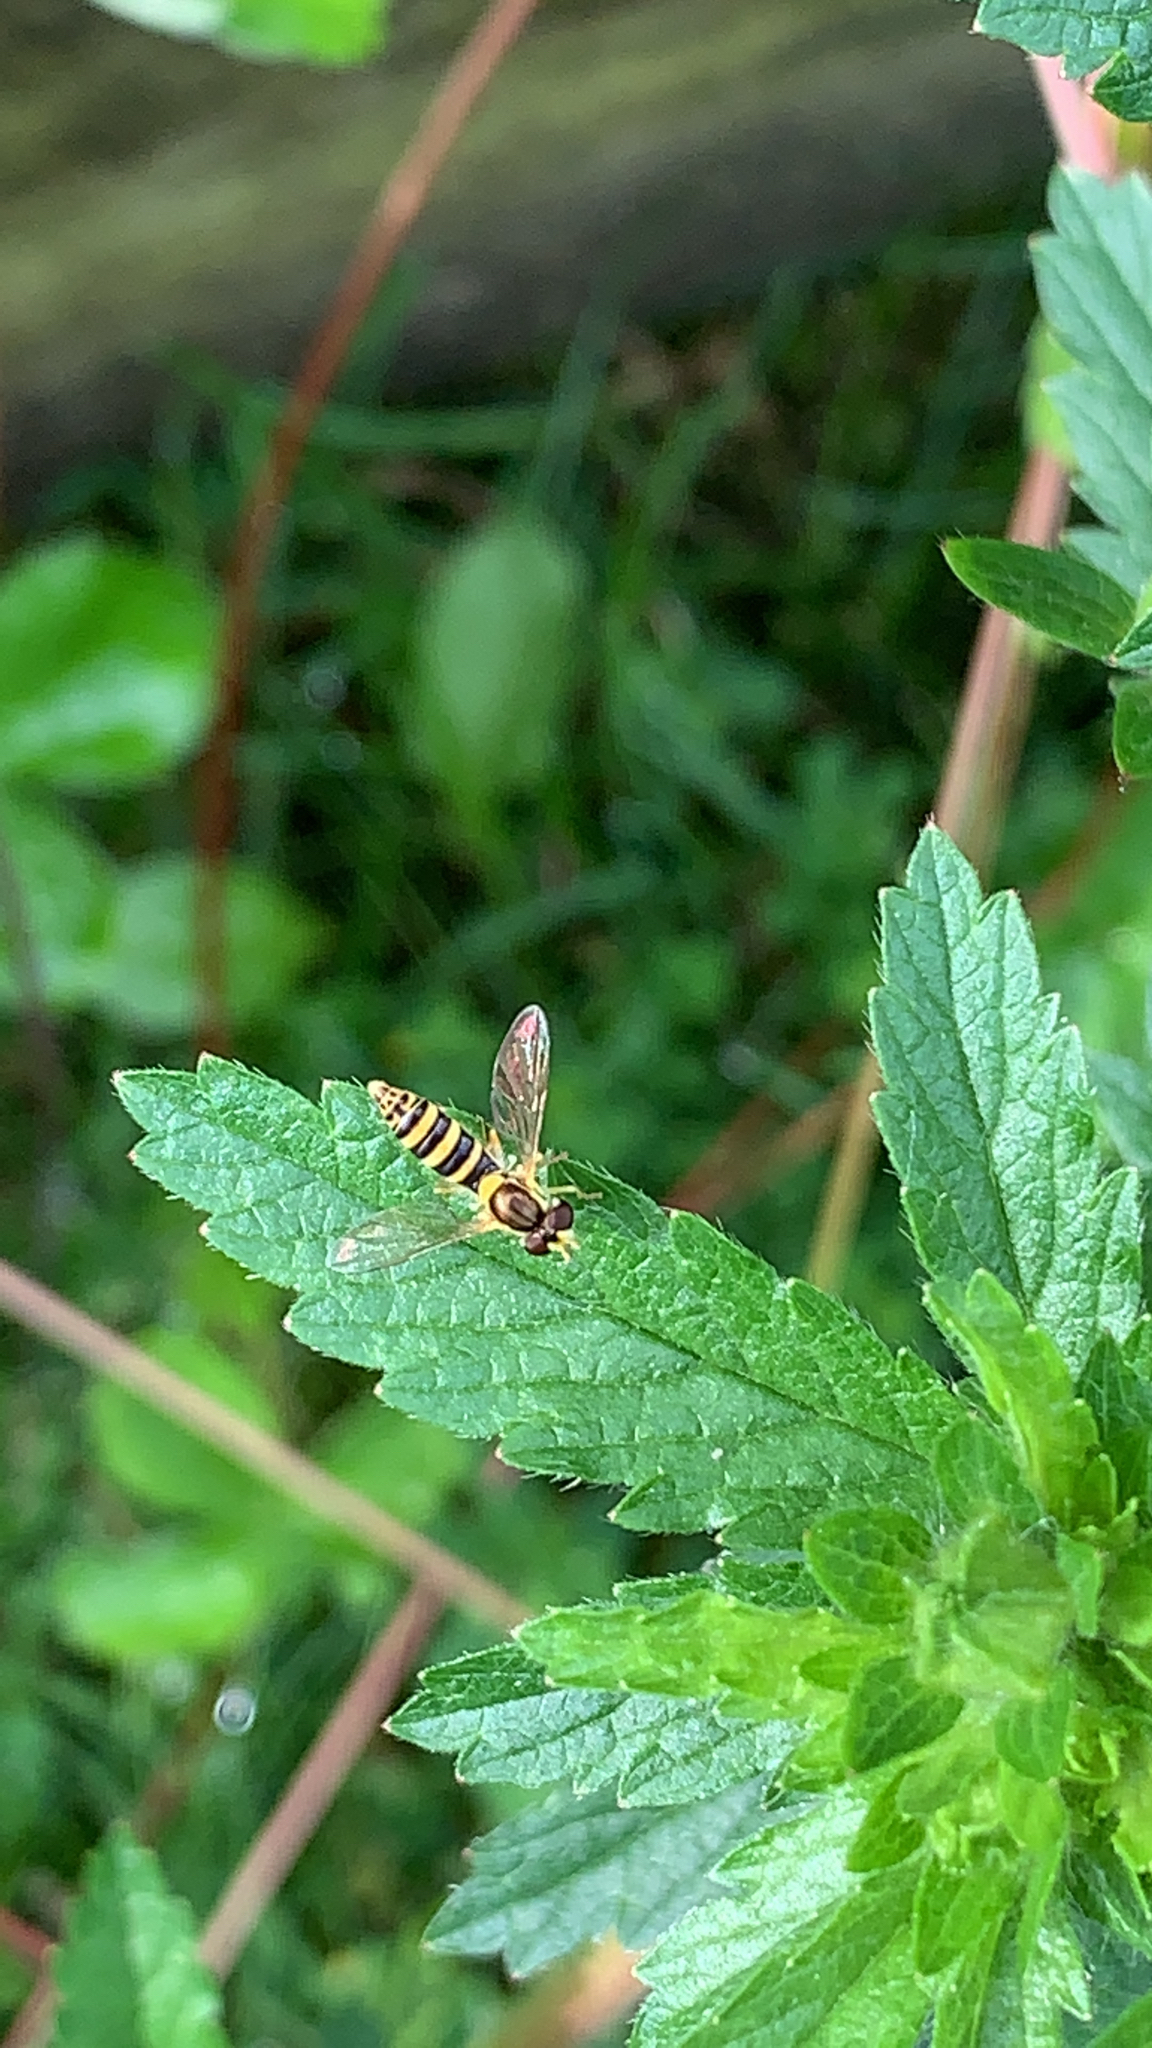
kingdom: Animalia
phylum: Arthropoda
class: Insecta
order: Diptera
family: Syrphidae
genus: Sphaerophoria
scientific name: Sphaerophoria
